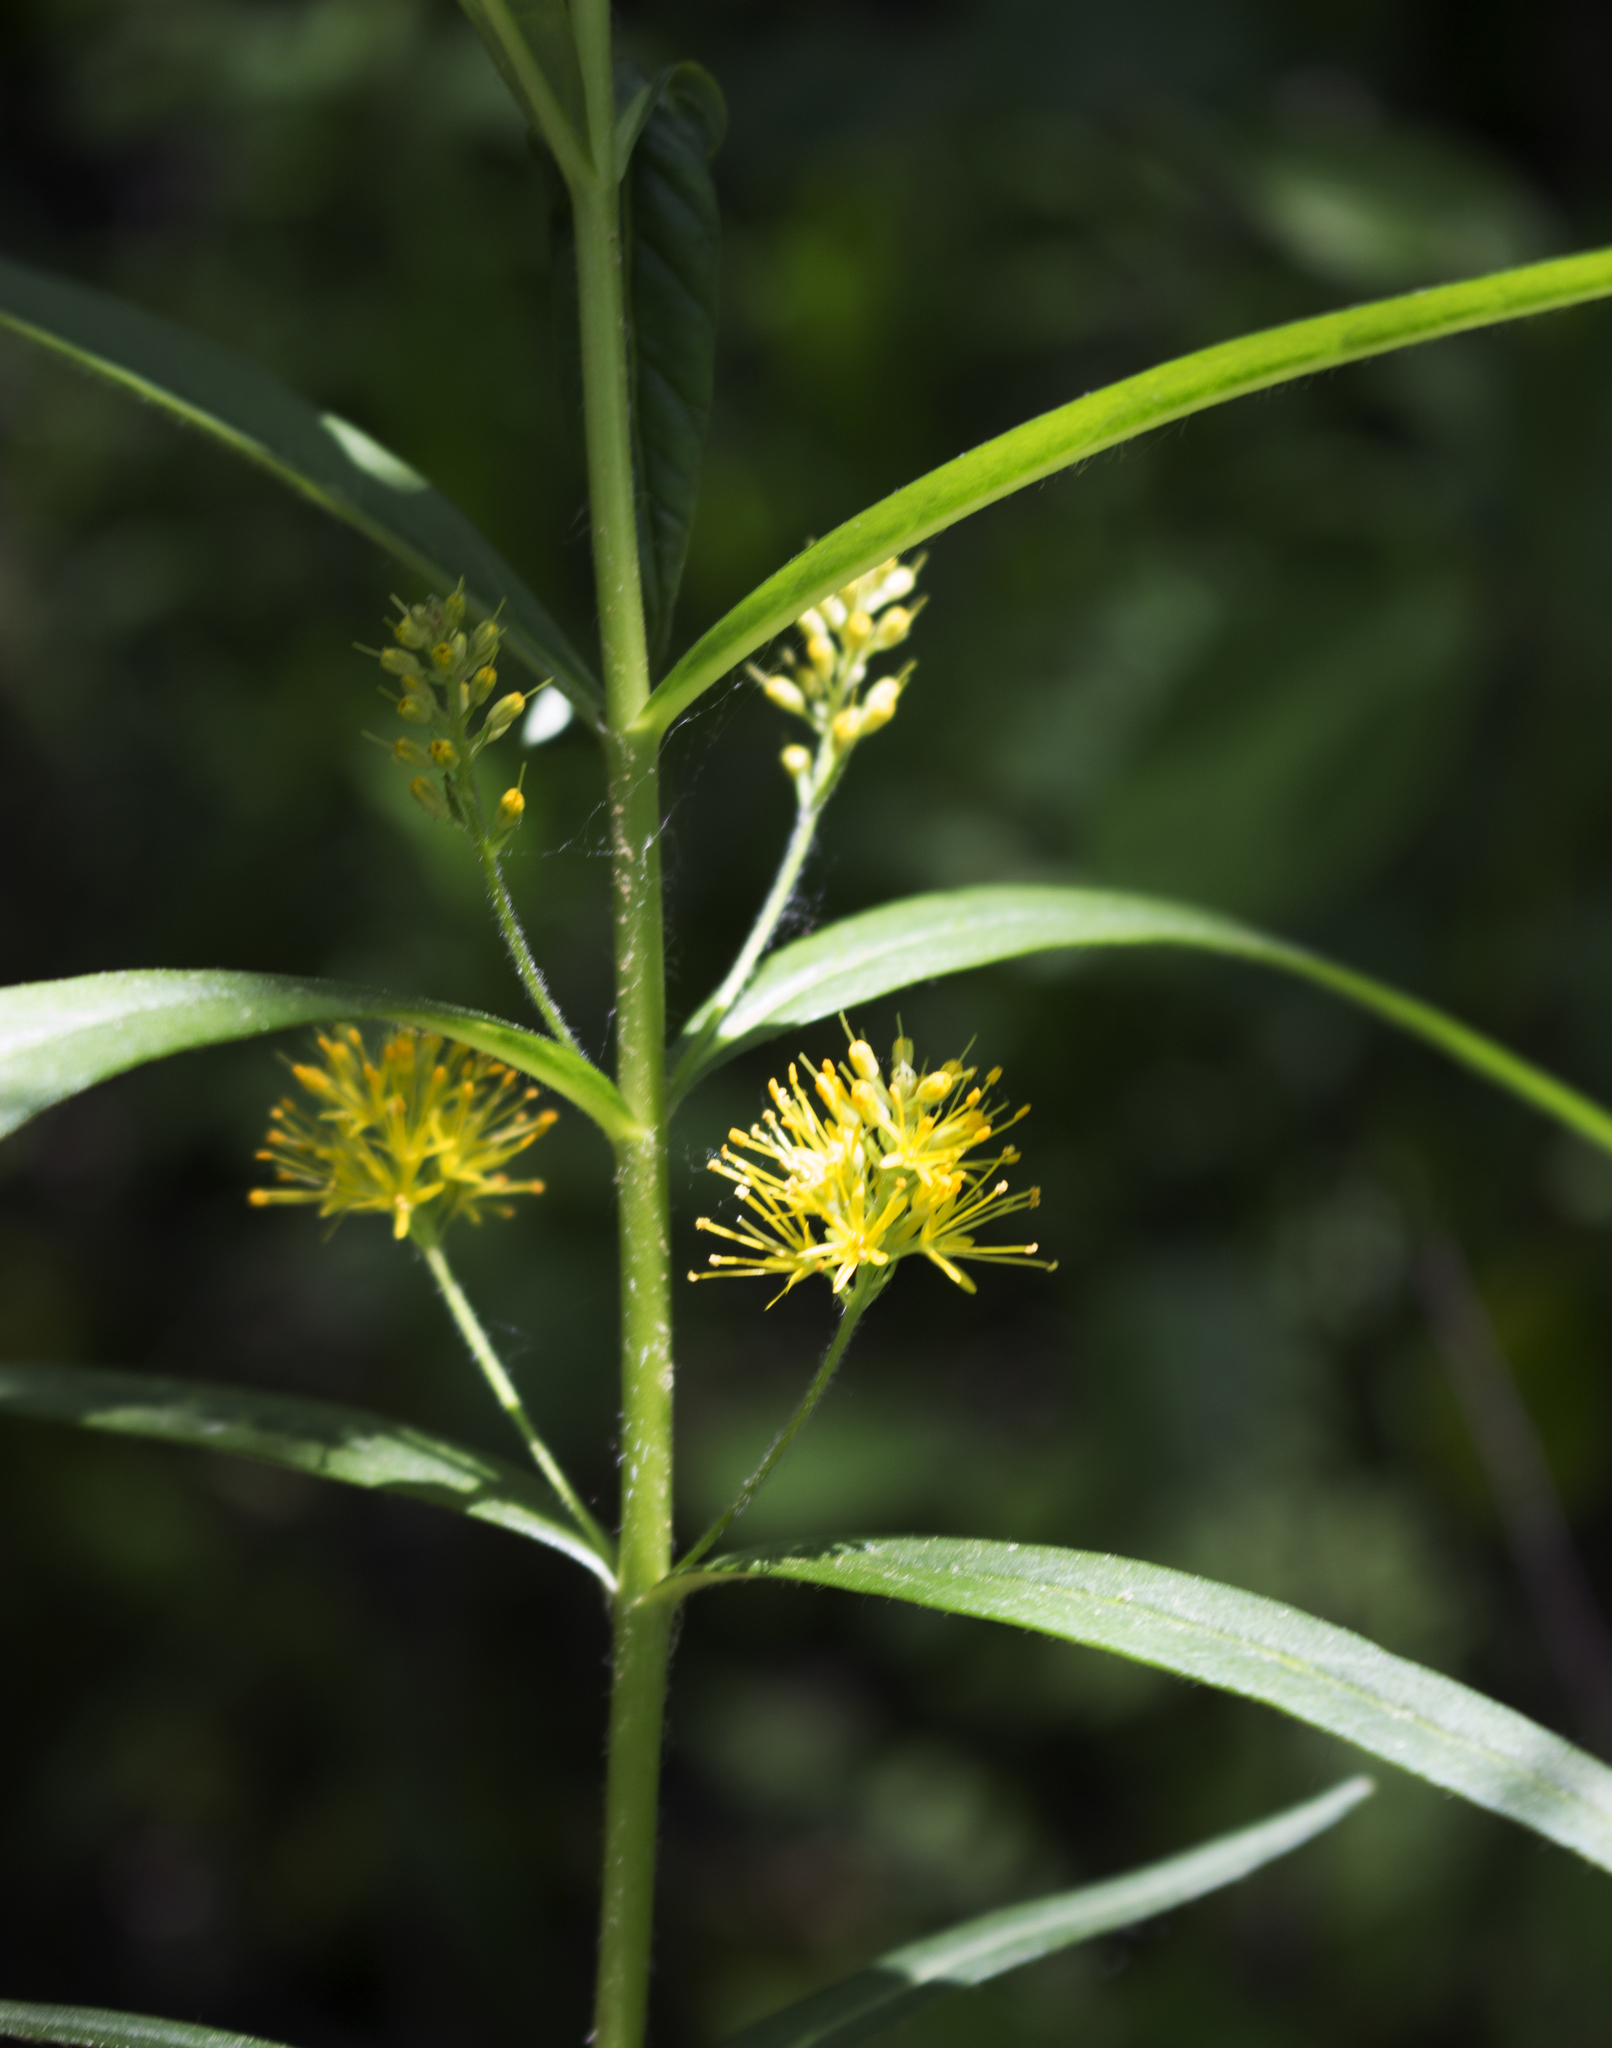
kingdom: Plantae
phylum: Tracheophyta
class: Magnoliopsida
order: Ericales
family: Primulaceae
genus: Lysimachia
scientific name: Lysimachia thyrsiflora
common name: Tufted loosestrife
